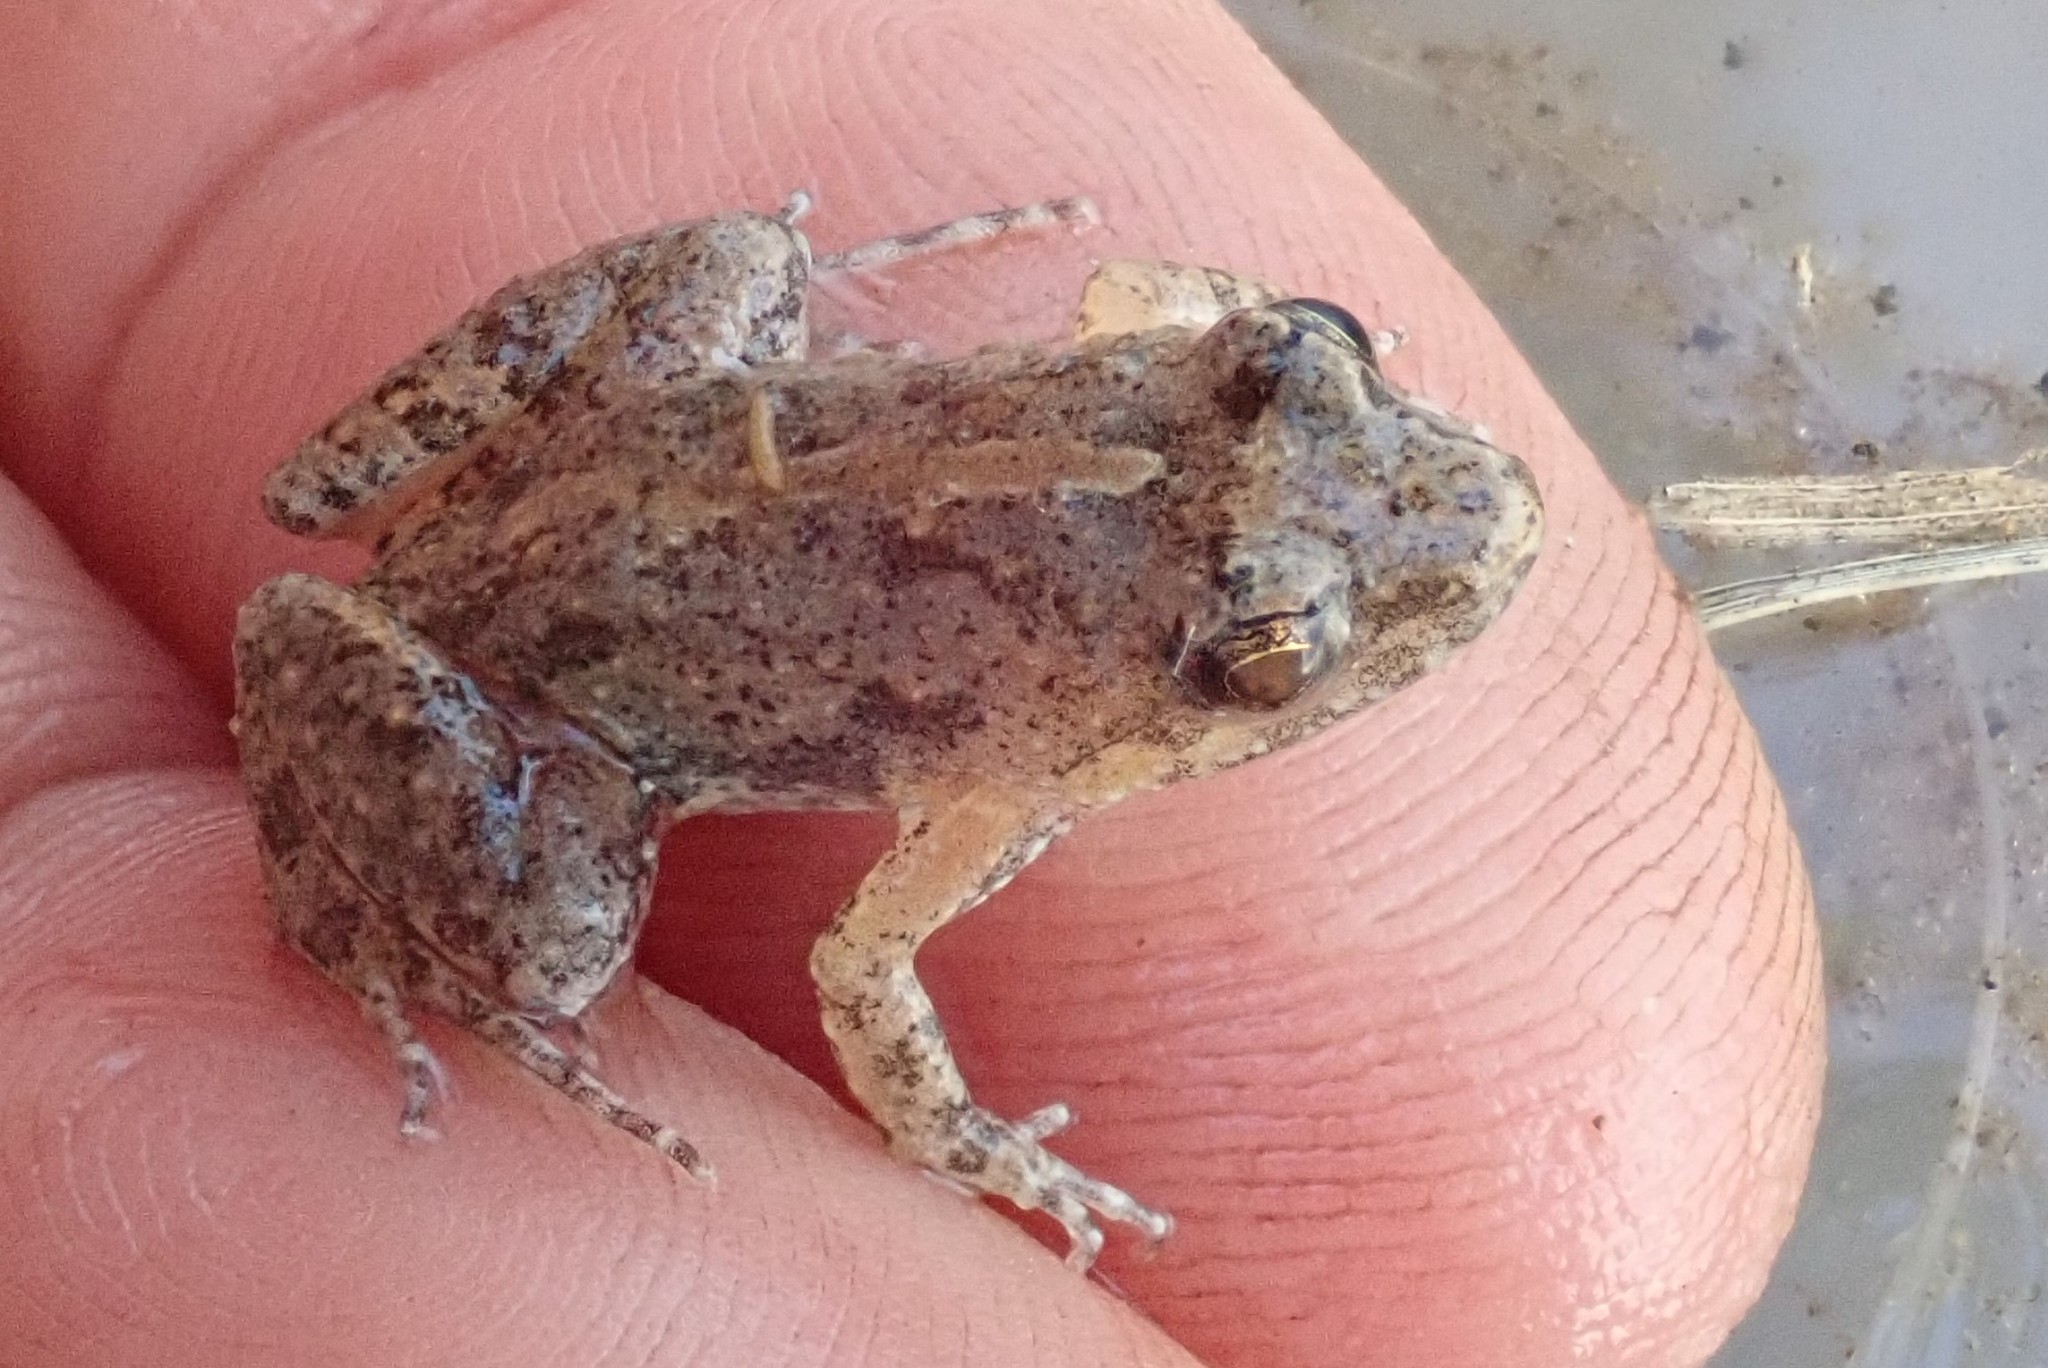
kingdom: Animalia
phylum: Chordata
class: Amphibia
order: Anura
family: Phrynobatrachidae
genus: Phrynobatrachus
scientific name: Phrynobatrachus mababiensis
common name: Dwarf puddle frog
